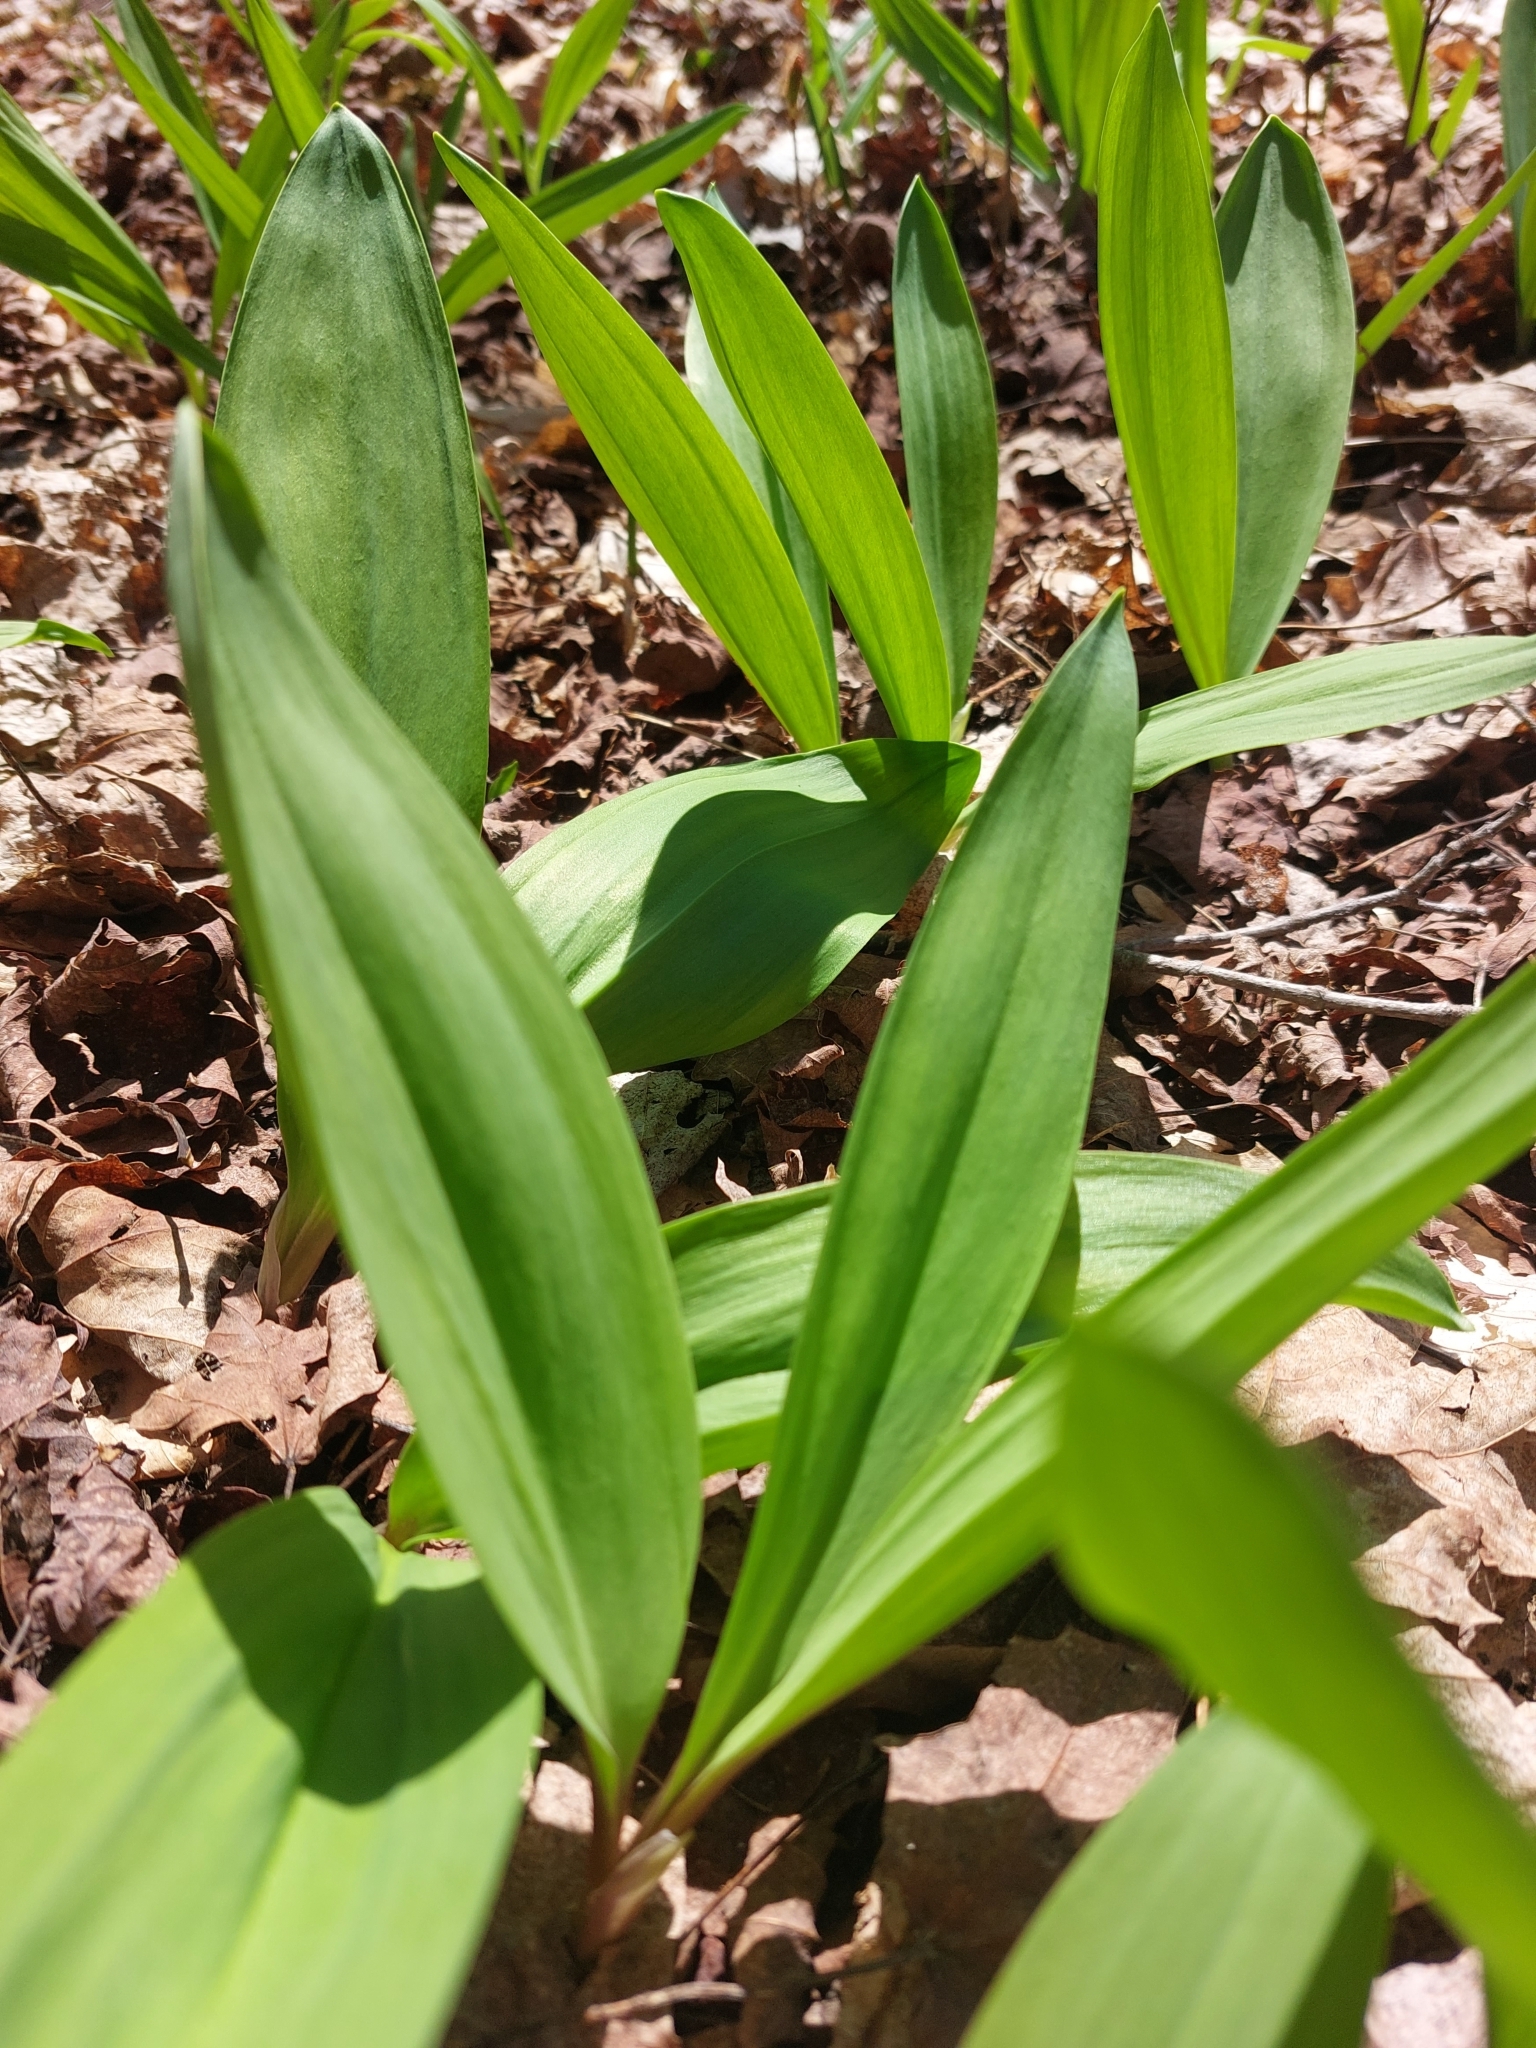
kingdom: Plantae
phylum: Tracheophyta
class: Liliopsida
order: Asparagales
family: Amaryllidaceae
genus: Allium
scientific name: Allium tricoccum
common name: Ramp
